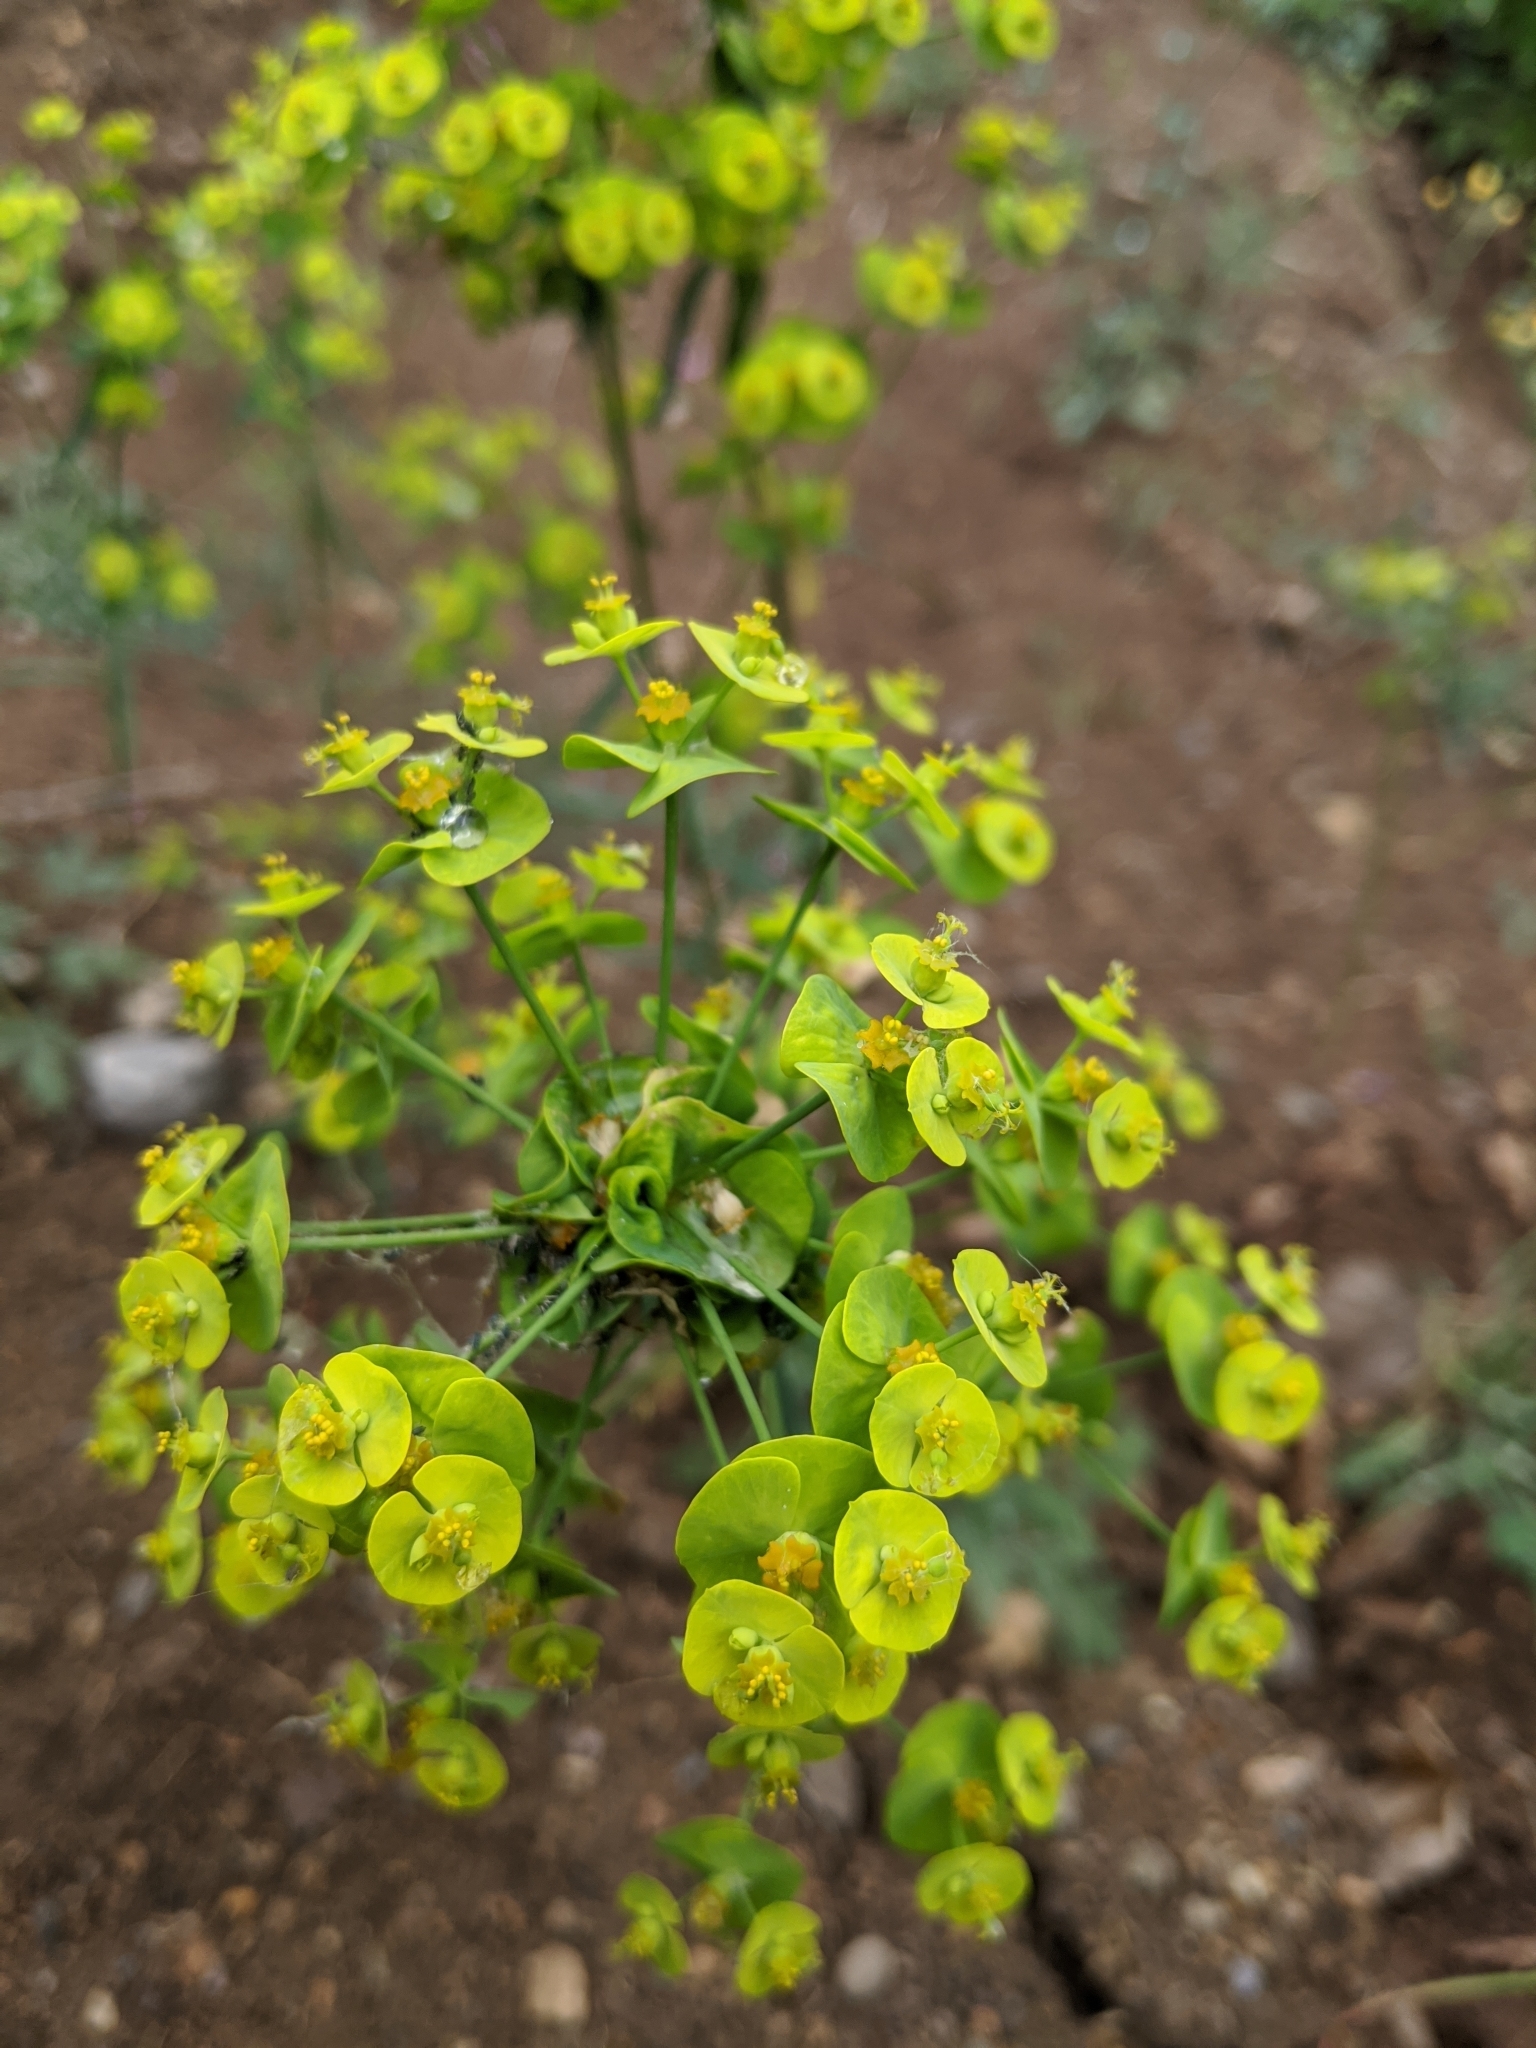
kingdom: Plantae
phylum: Tracheophyta
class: Magnoliopsida
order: Malpighiales
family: Euphorbiaceae
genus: Euphorbia
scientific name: Euphorbia esula
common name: Leafy spurge
